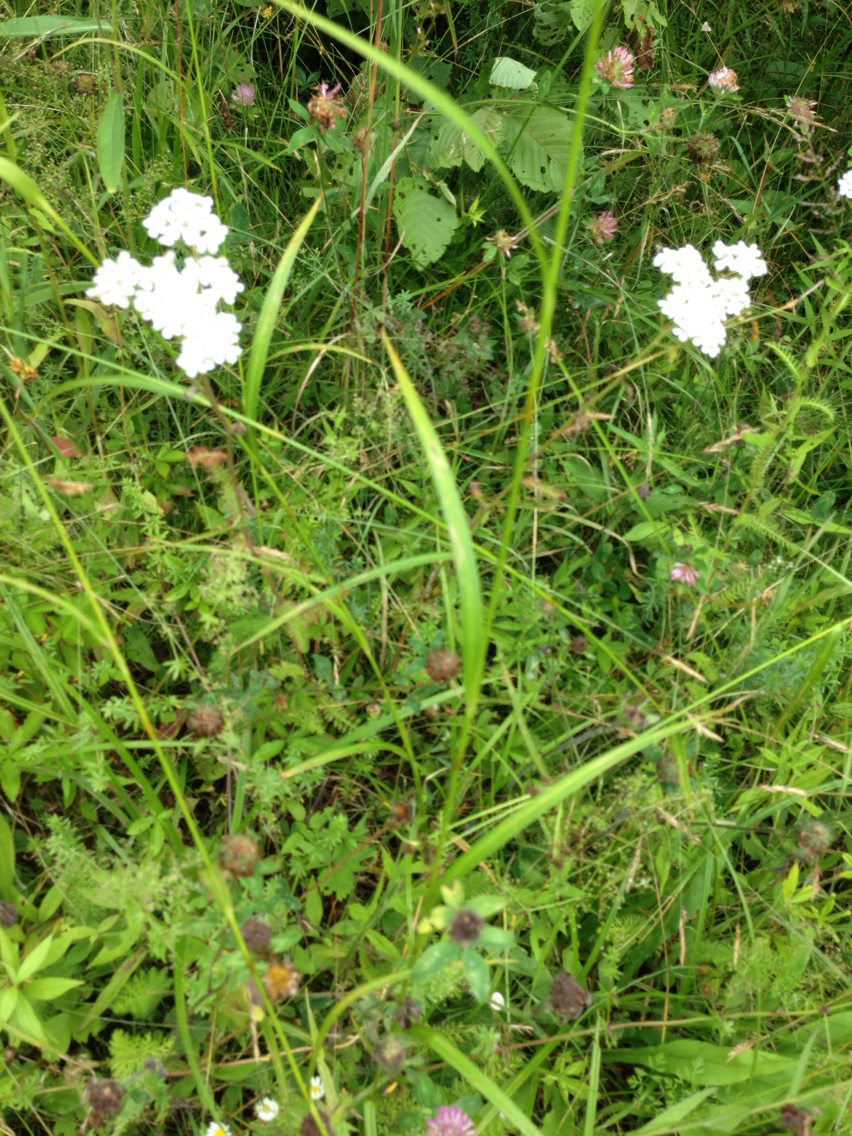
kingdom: Plantae
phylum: Tracheophyta
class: Magnoliopsida
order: Asterales
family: Asteraceae
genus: Achillea
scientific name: Achillea millefolium
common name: Yarrow
